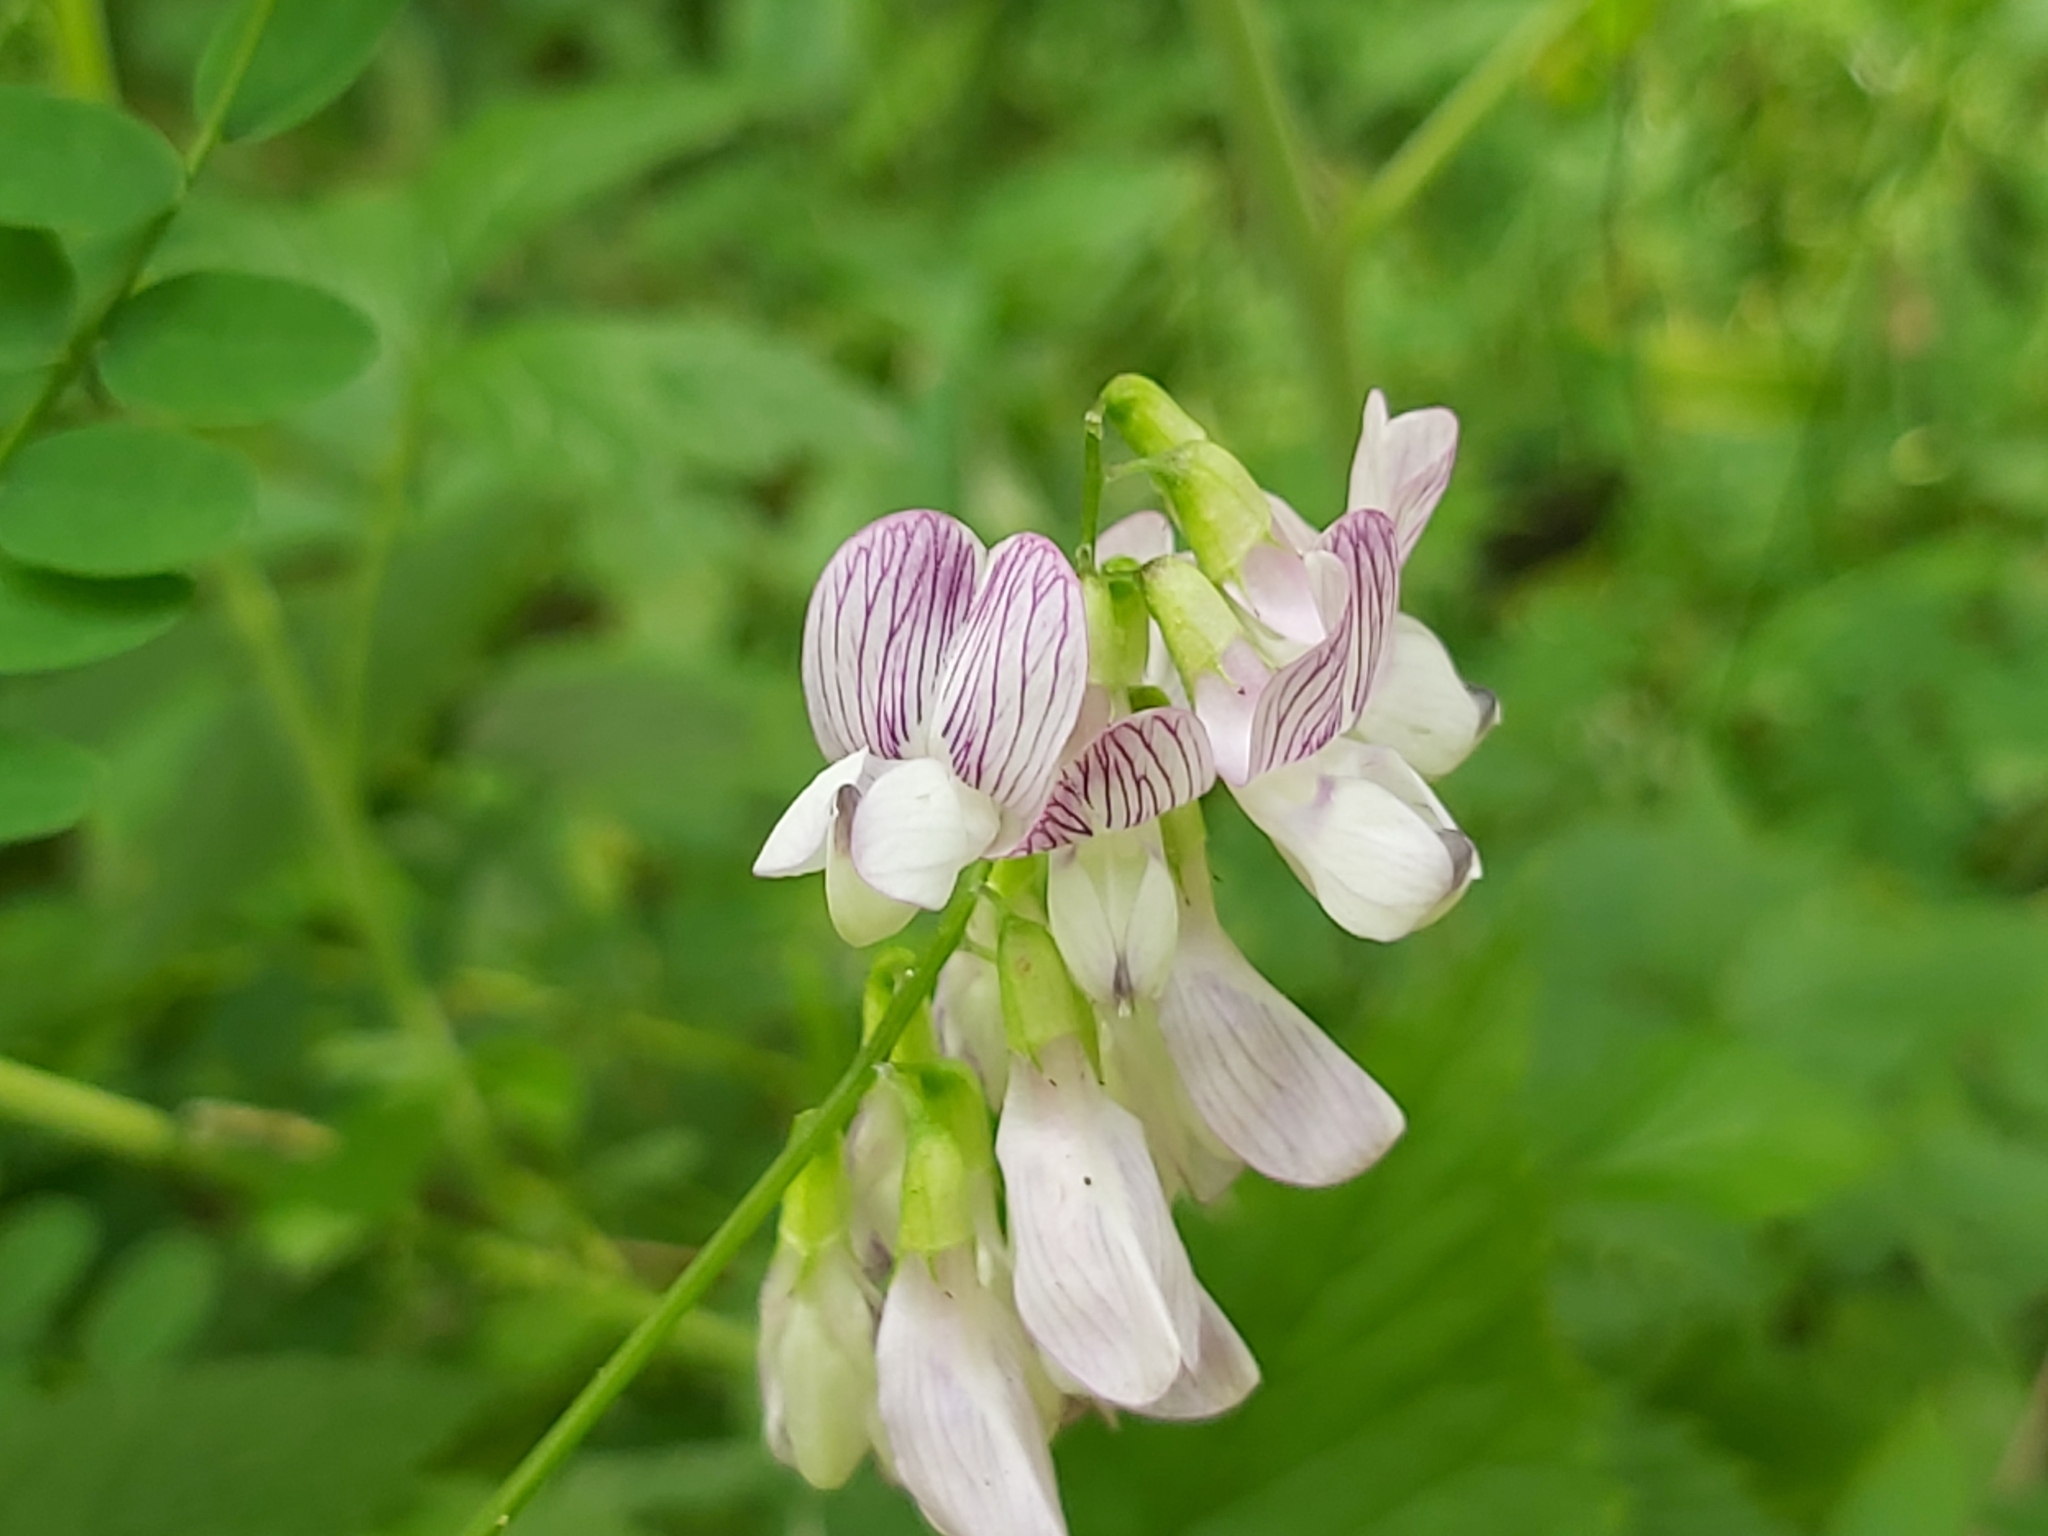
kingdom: Plantae
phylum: Tracheophyta
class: Magnoliopsida
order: Fabales
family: Fabaceae
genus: Vicia
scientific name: Vicia sylvatica
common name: Wood vetch
